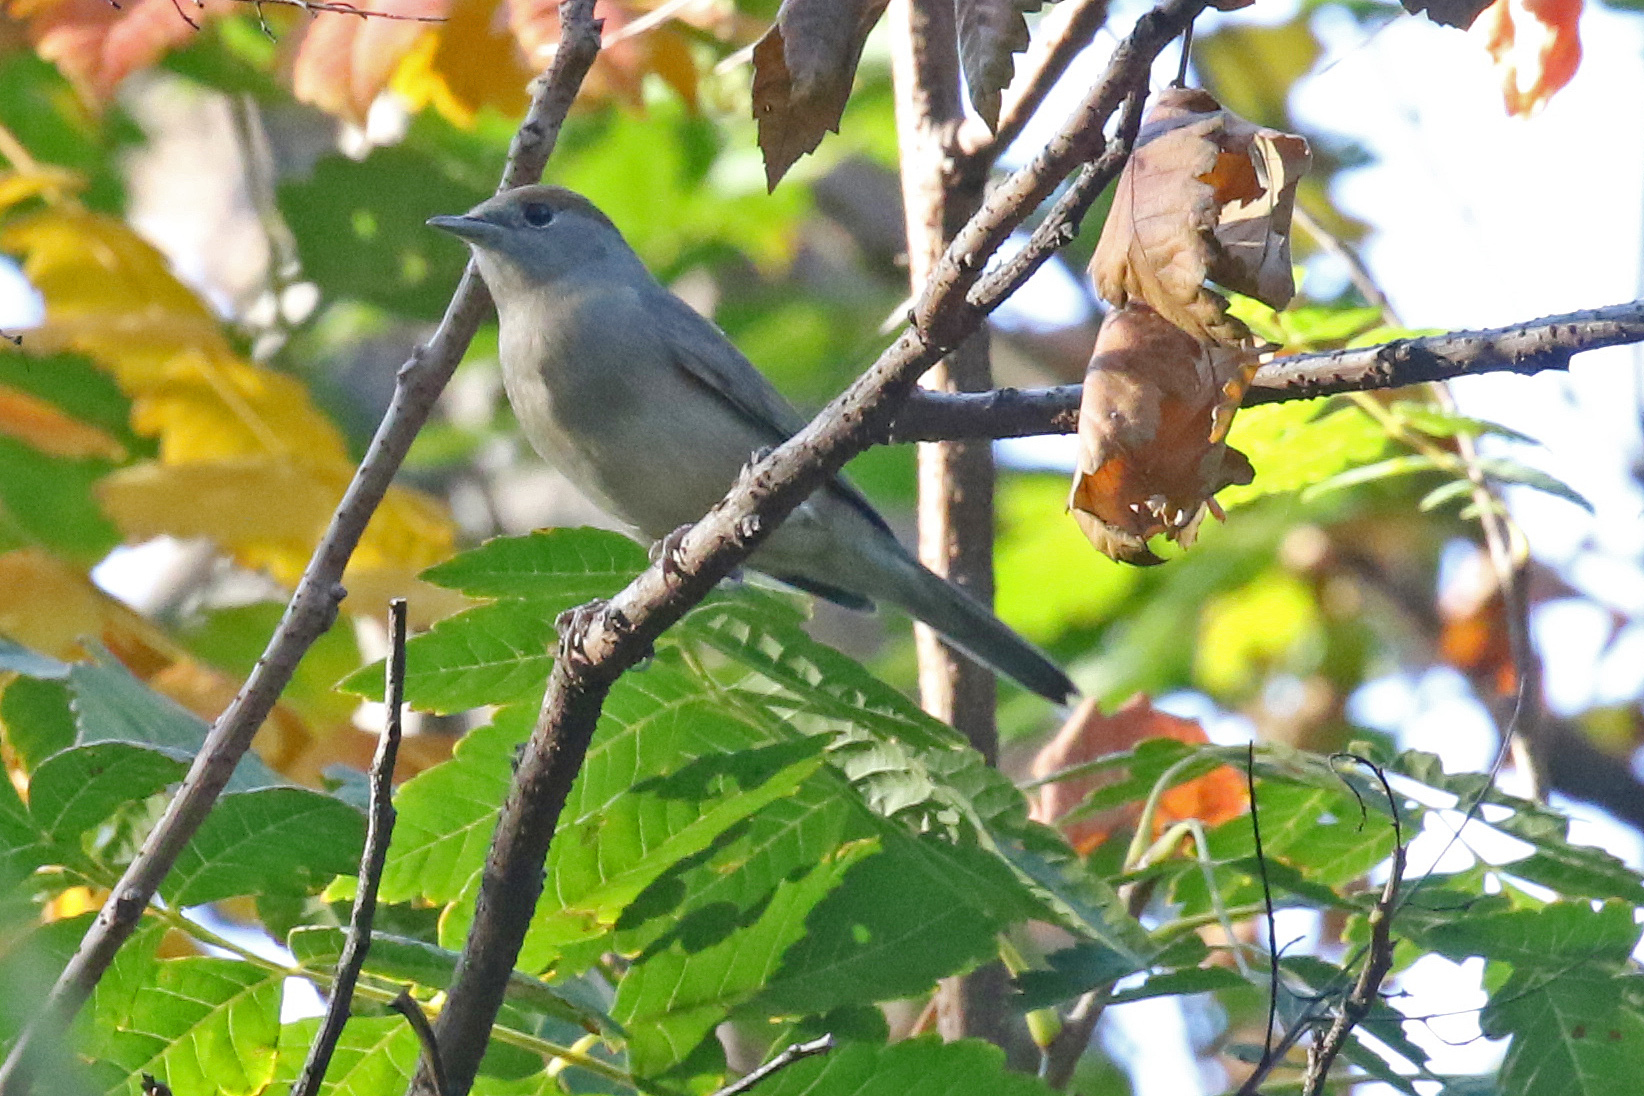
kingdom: Animalia
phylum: Chordata
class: Aves
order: Passeriformes
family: Sylviidae
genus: Sylvia
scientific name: Sylvia atricapilla
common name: Eurasian blackcap
